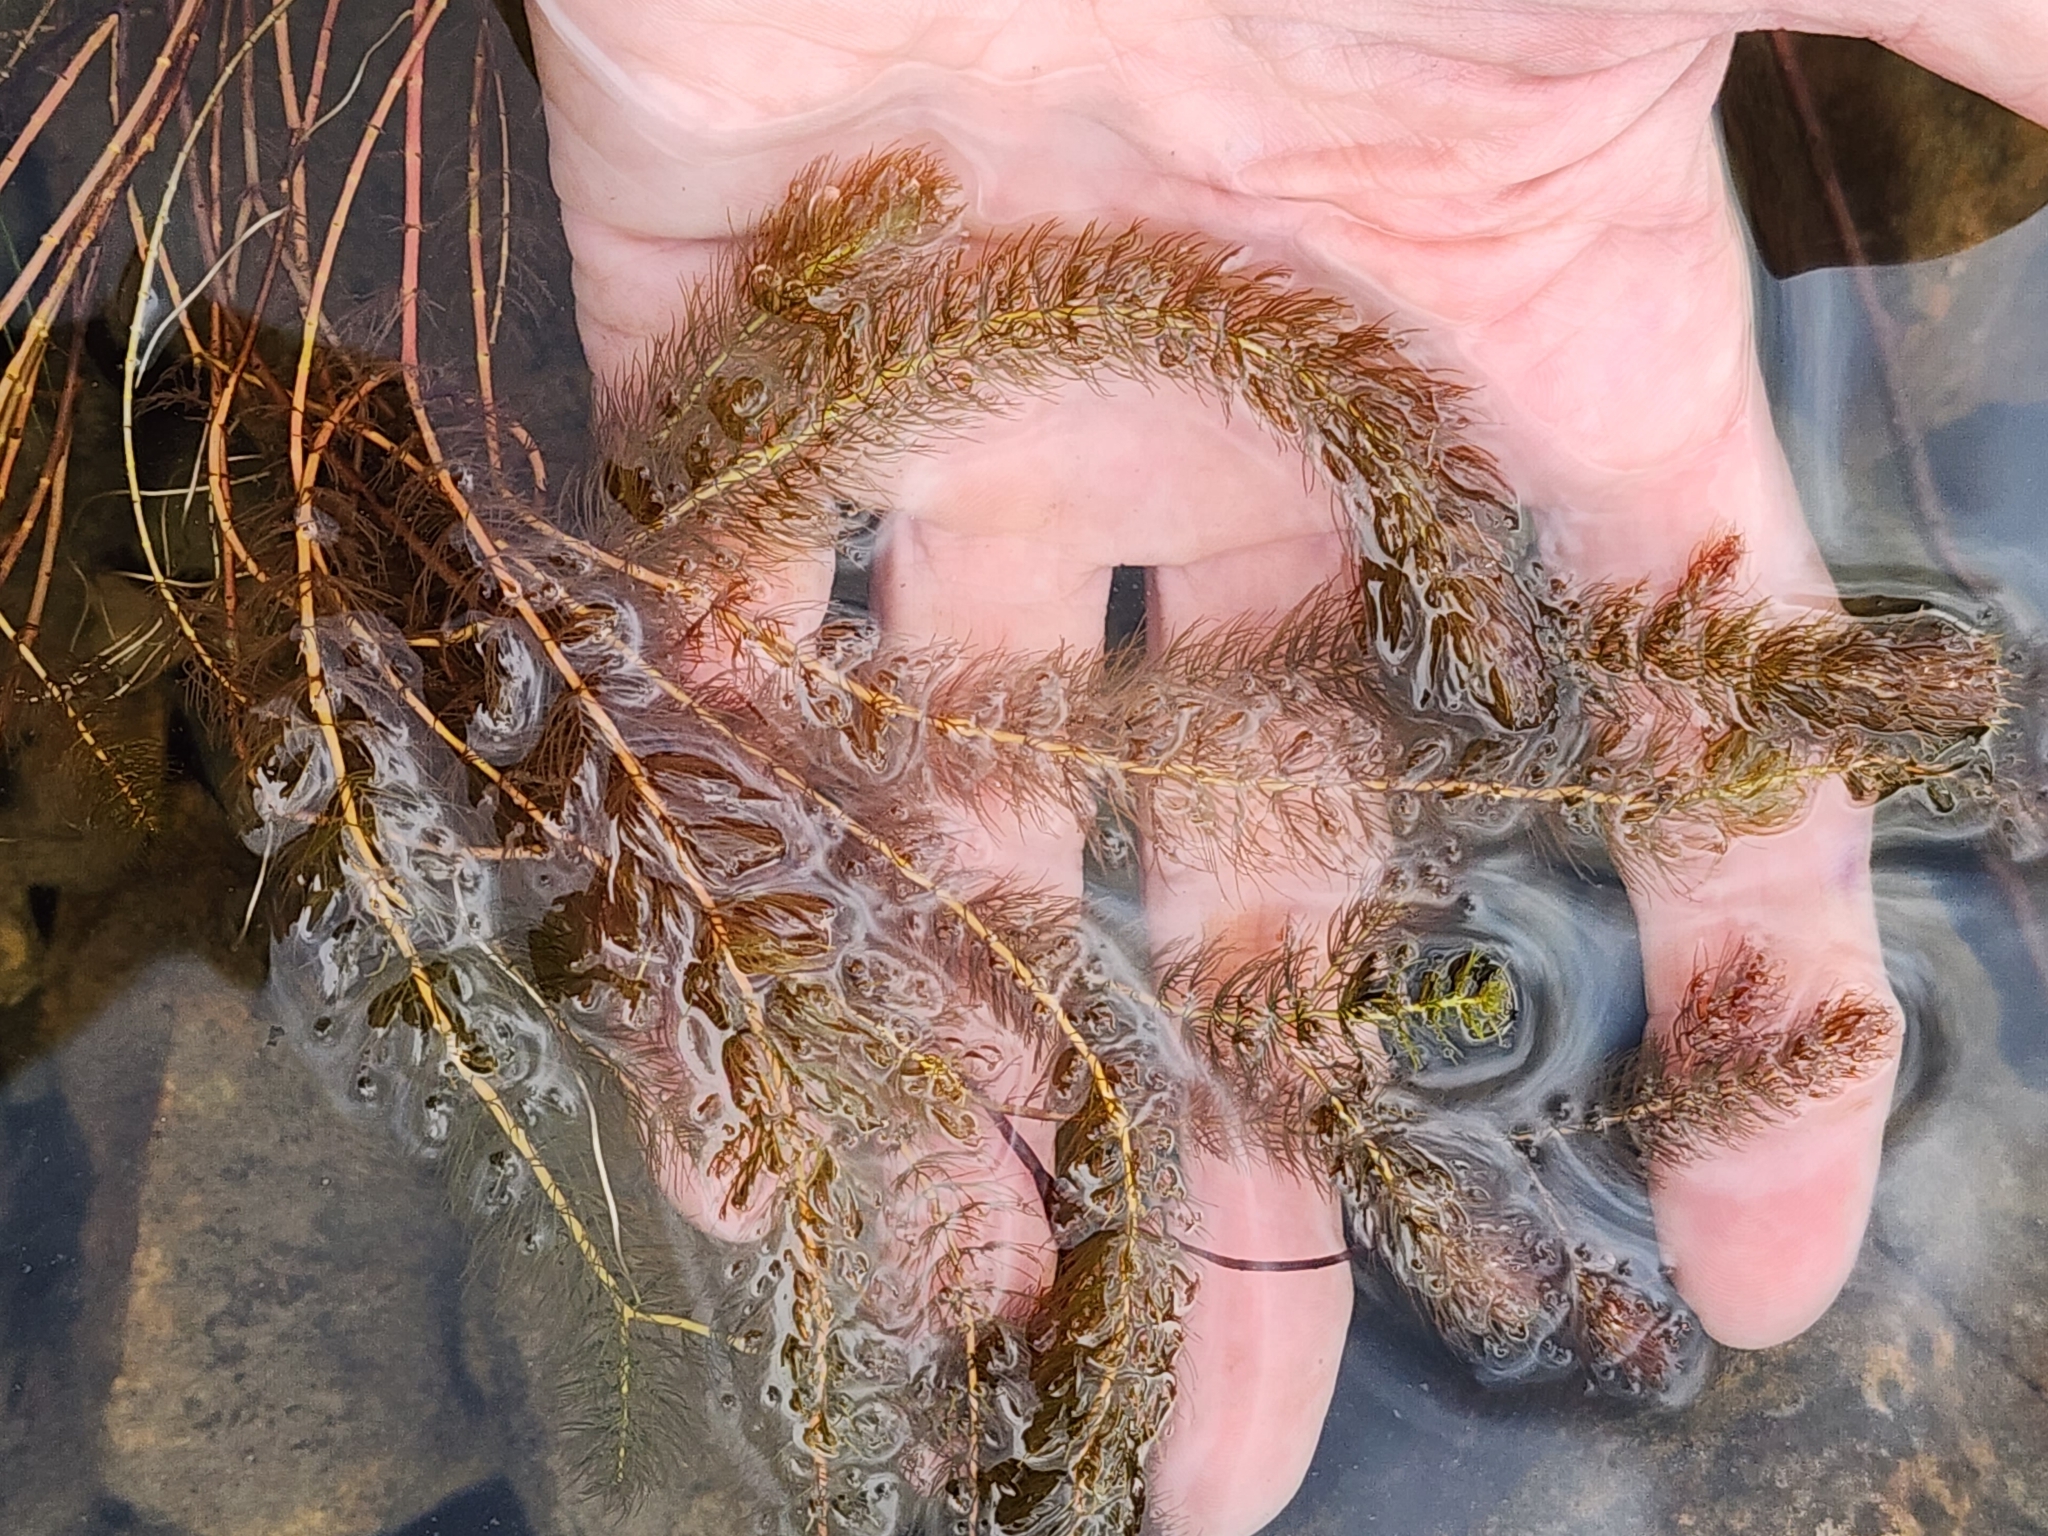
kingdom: Plantae
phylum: Tracheophyta
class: Magnoliopsida
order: Saxifragales
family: Haloragaceae
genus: Myriophyllum
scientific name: Myriophyllum alterniflorum
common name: Alternate water-milfoil
